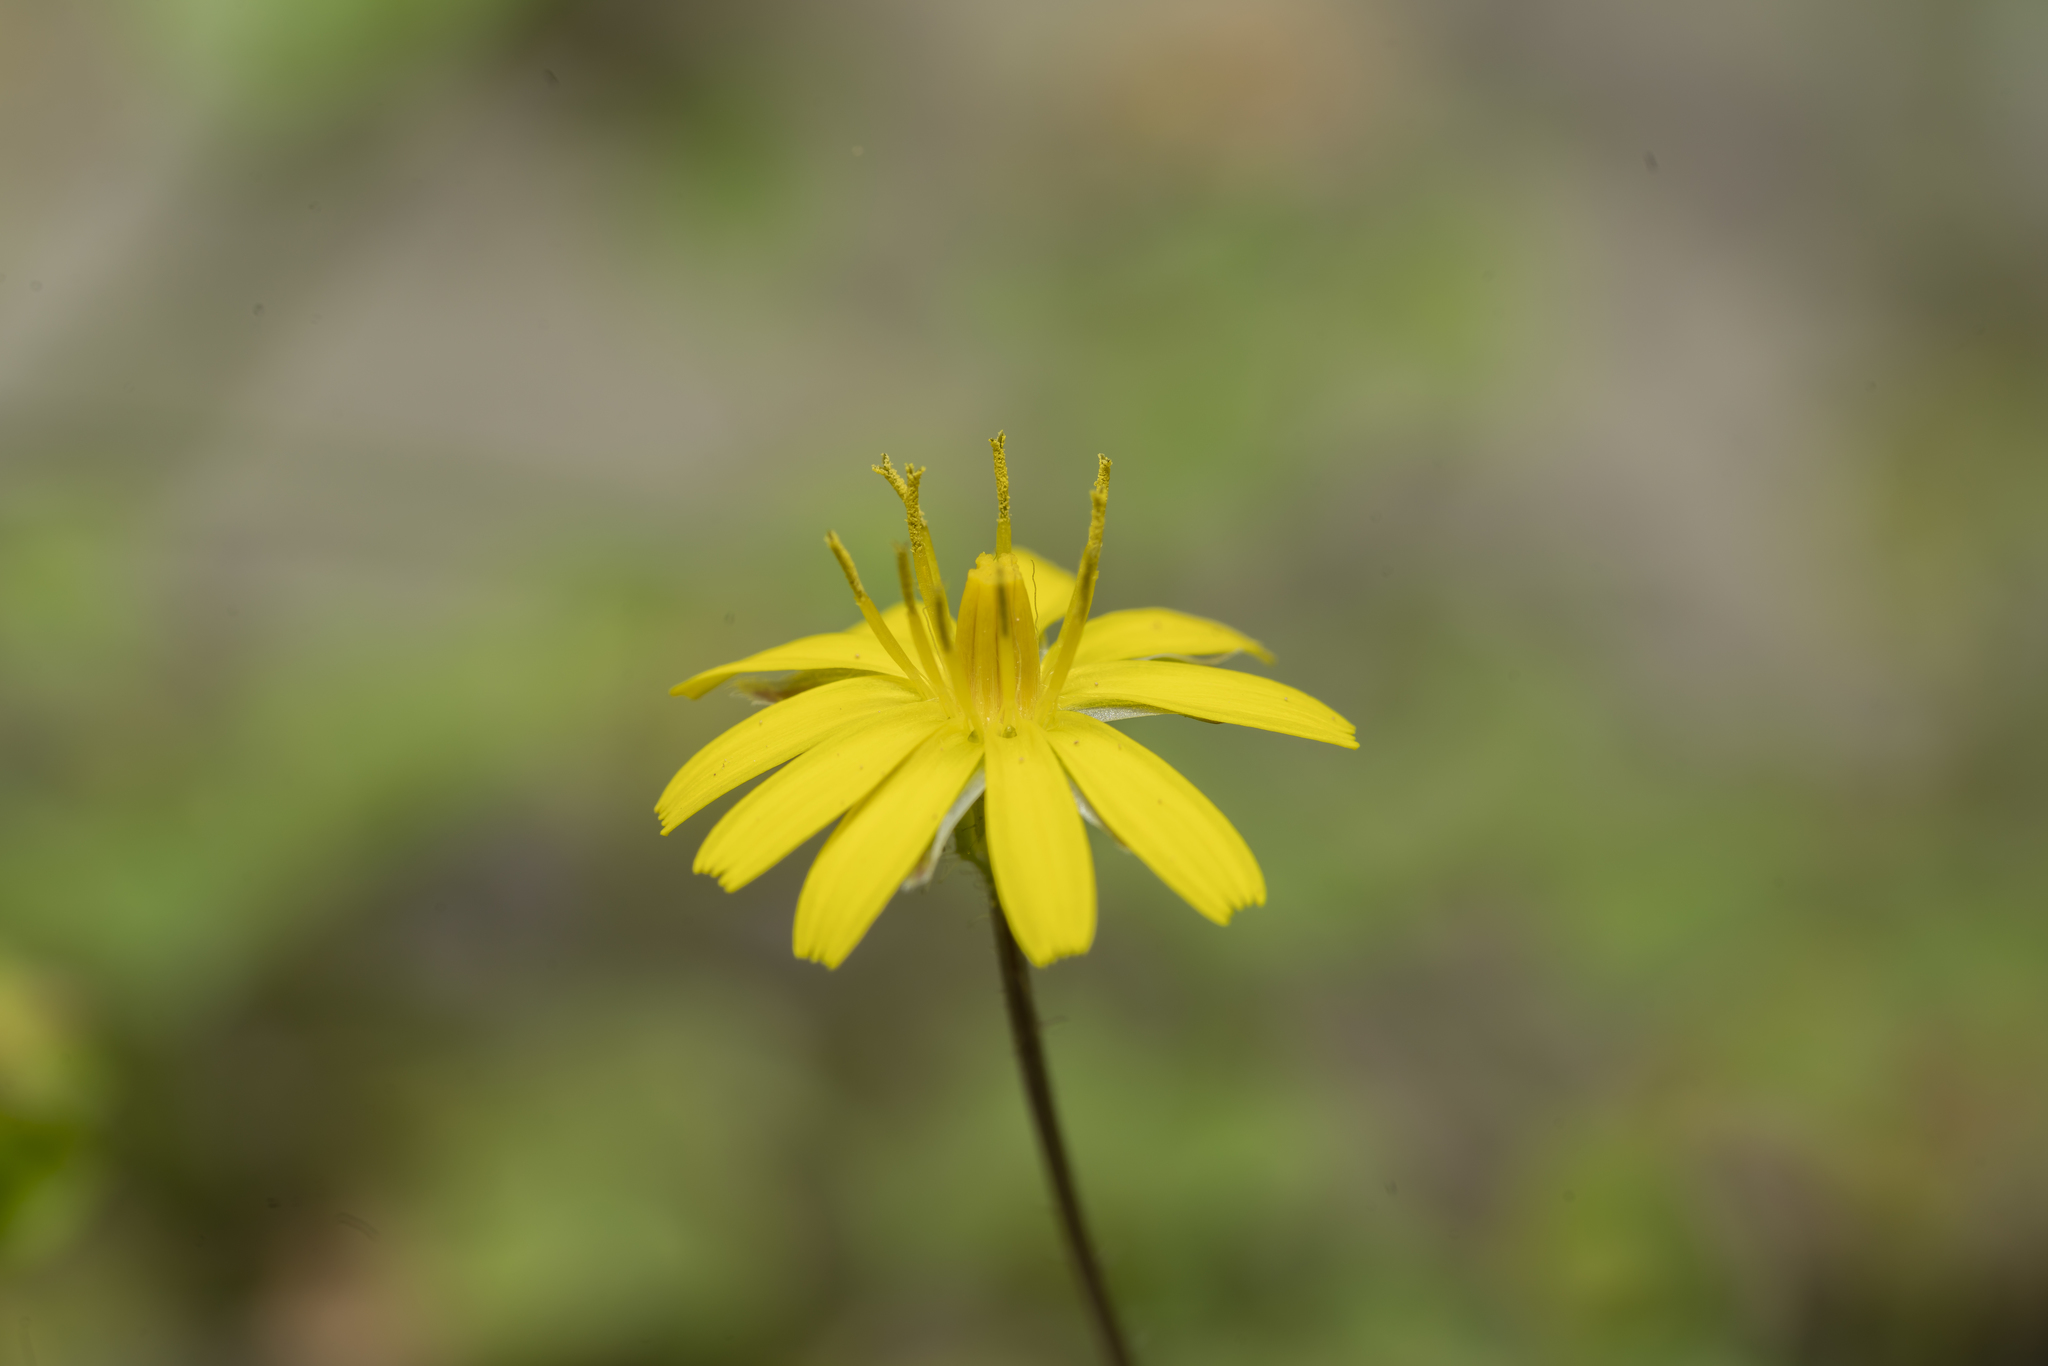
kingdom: Plantae
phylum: Tracheophyta
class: Magnoliopsida
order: Asterales
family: Asteraceae
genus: Crepis
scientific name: Crepis sancta
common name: Hawk's-beard
